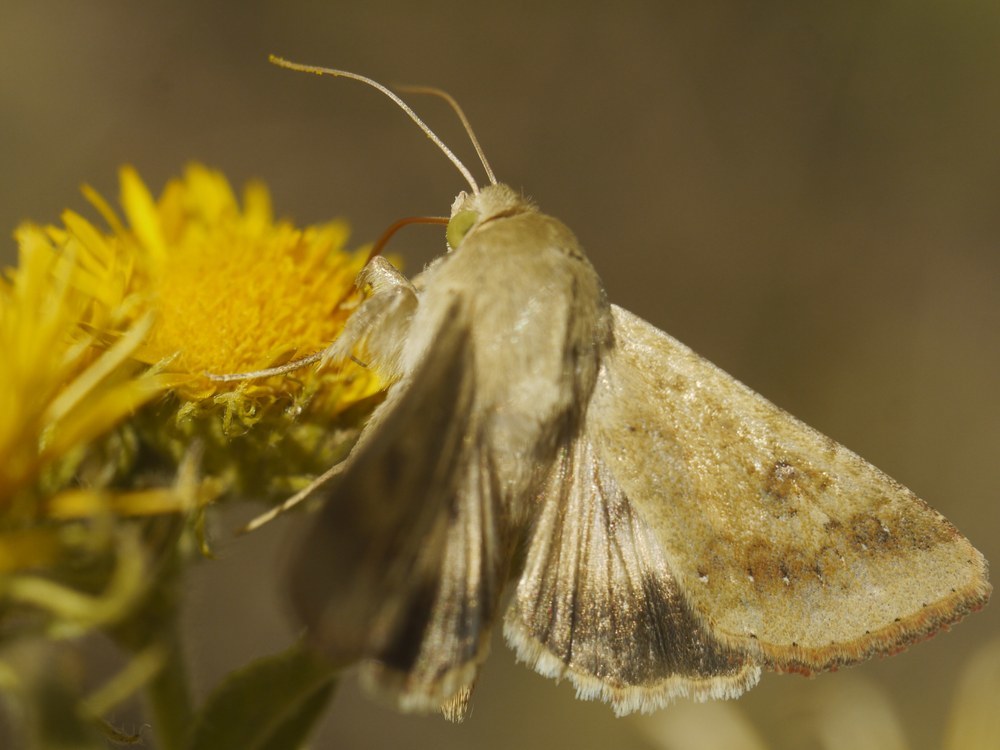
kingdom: Animalia
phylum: Arthropoda
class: Insecta
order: Lepidoptera
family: Noctuidae
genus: Helicoverpa
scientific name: Helicoverpa armigera
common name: Cotton bollworm
